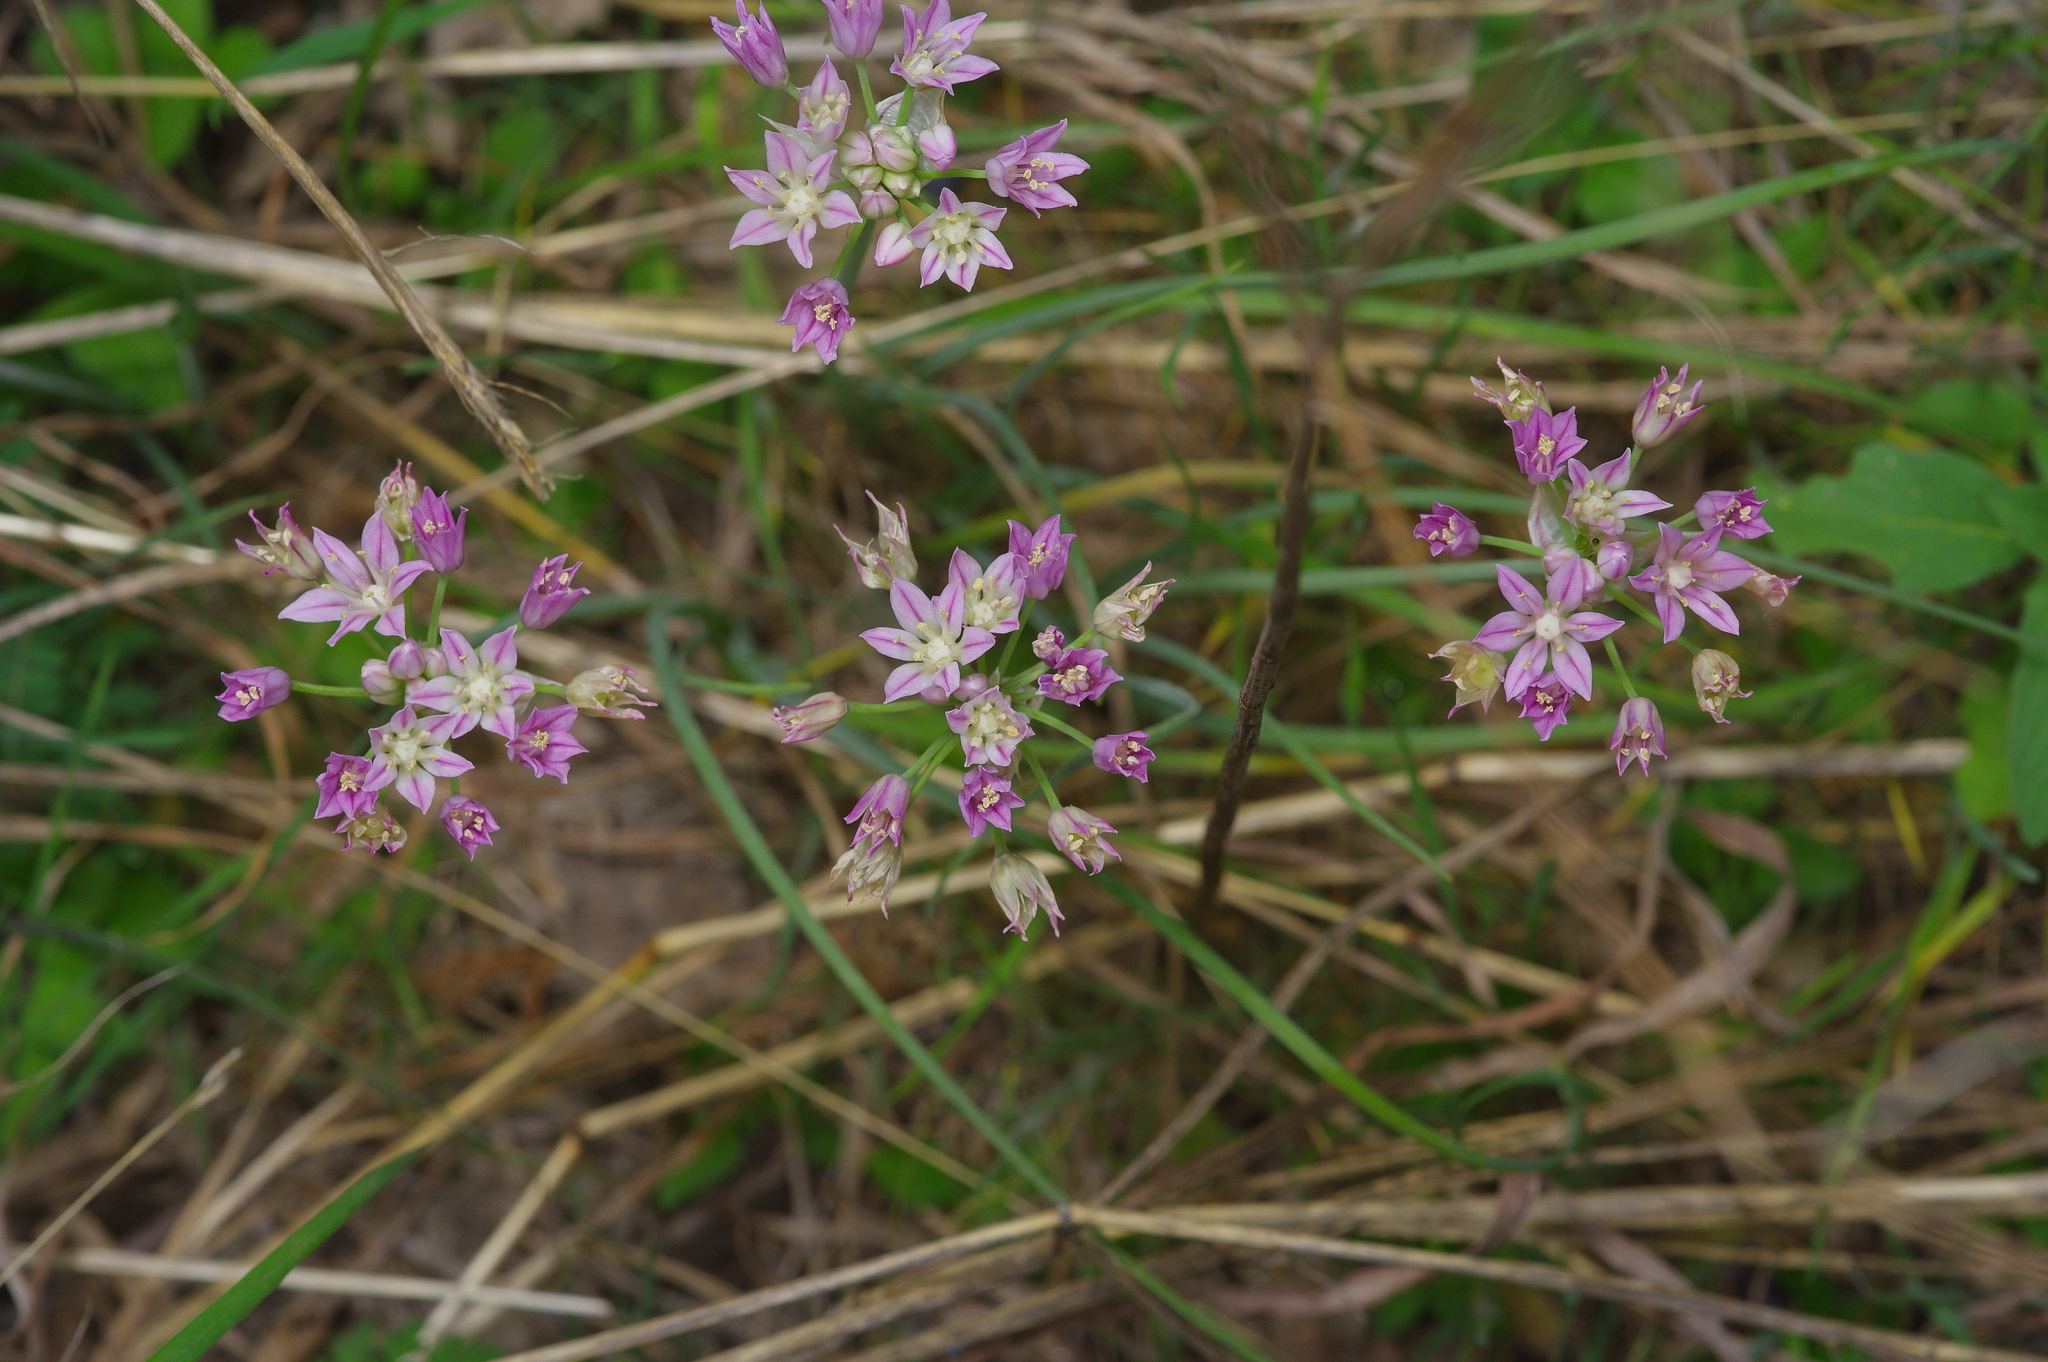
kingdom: Plantae
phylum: Tracheophyta
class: Liliopsida
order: Asparagales
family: Amaryllidaceae
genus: Allium
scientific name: Allium drummondii
